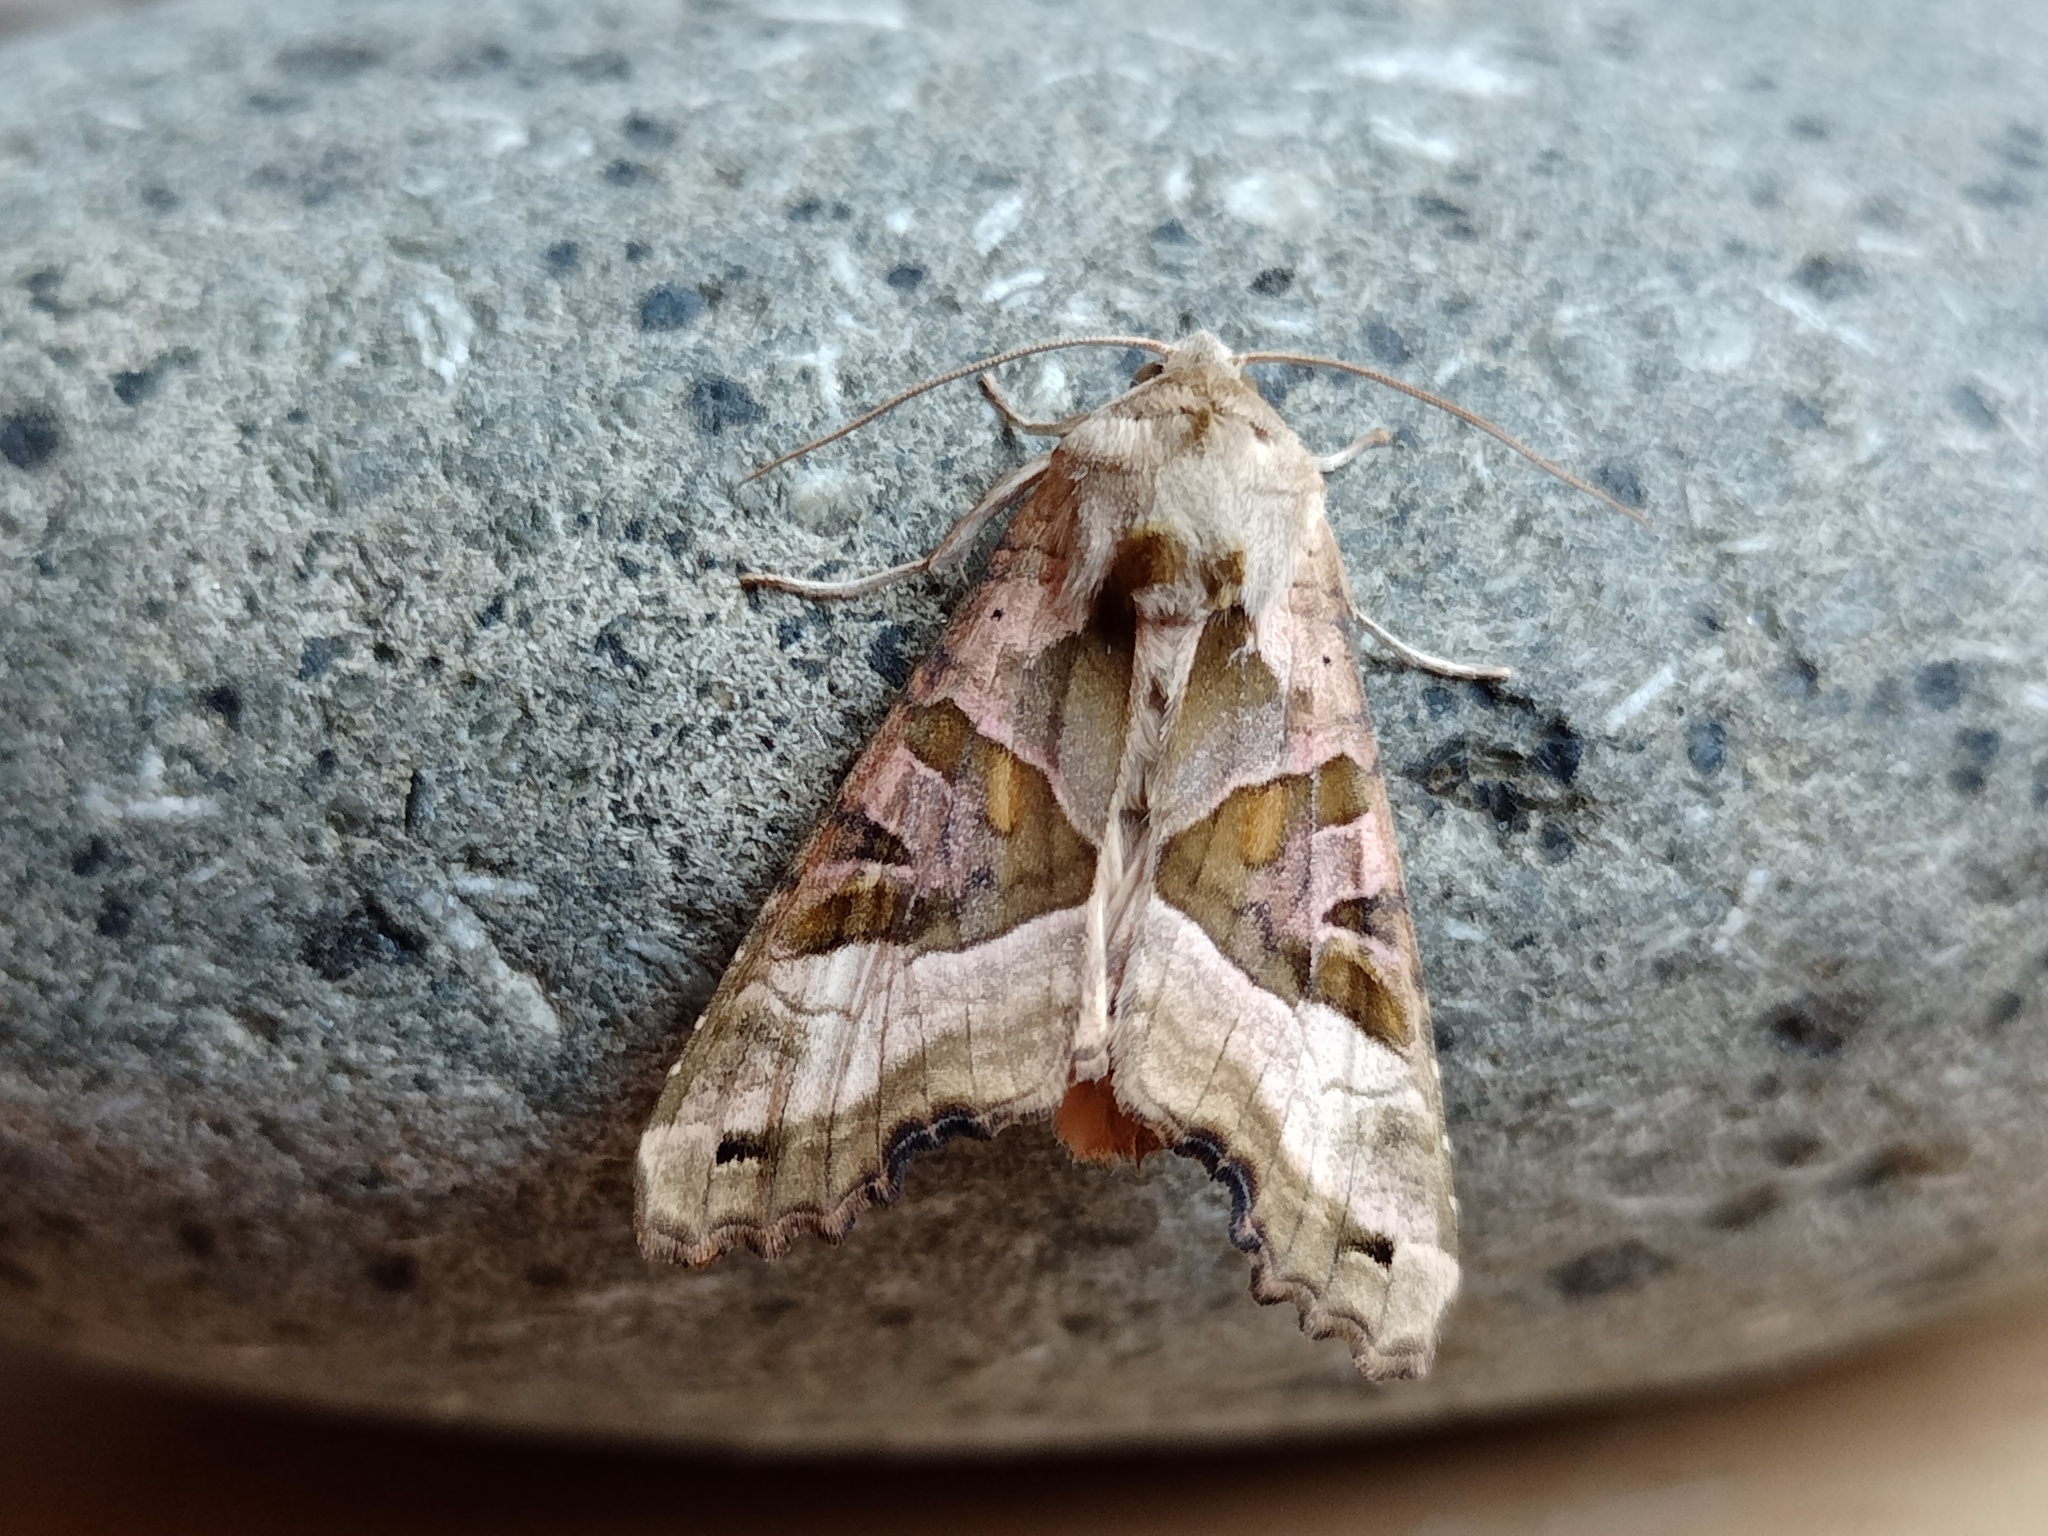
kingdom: Animalia
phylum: Arthropoda
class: Insecta
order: Lepidoptera
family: Noctuidae
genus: Phlogophora
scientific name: Phlogophora meticulosa
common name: Angle shades
